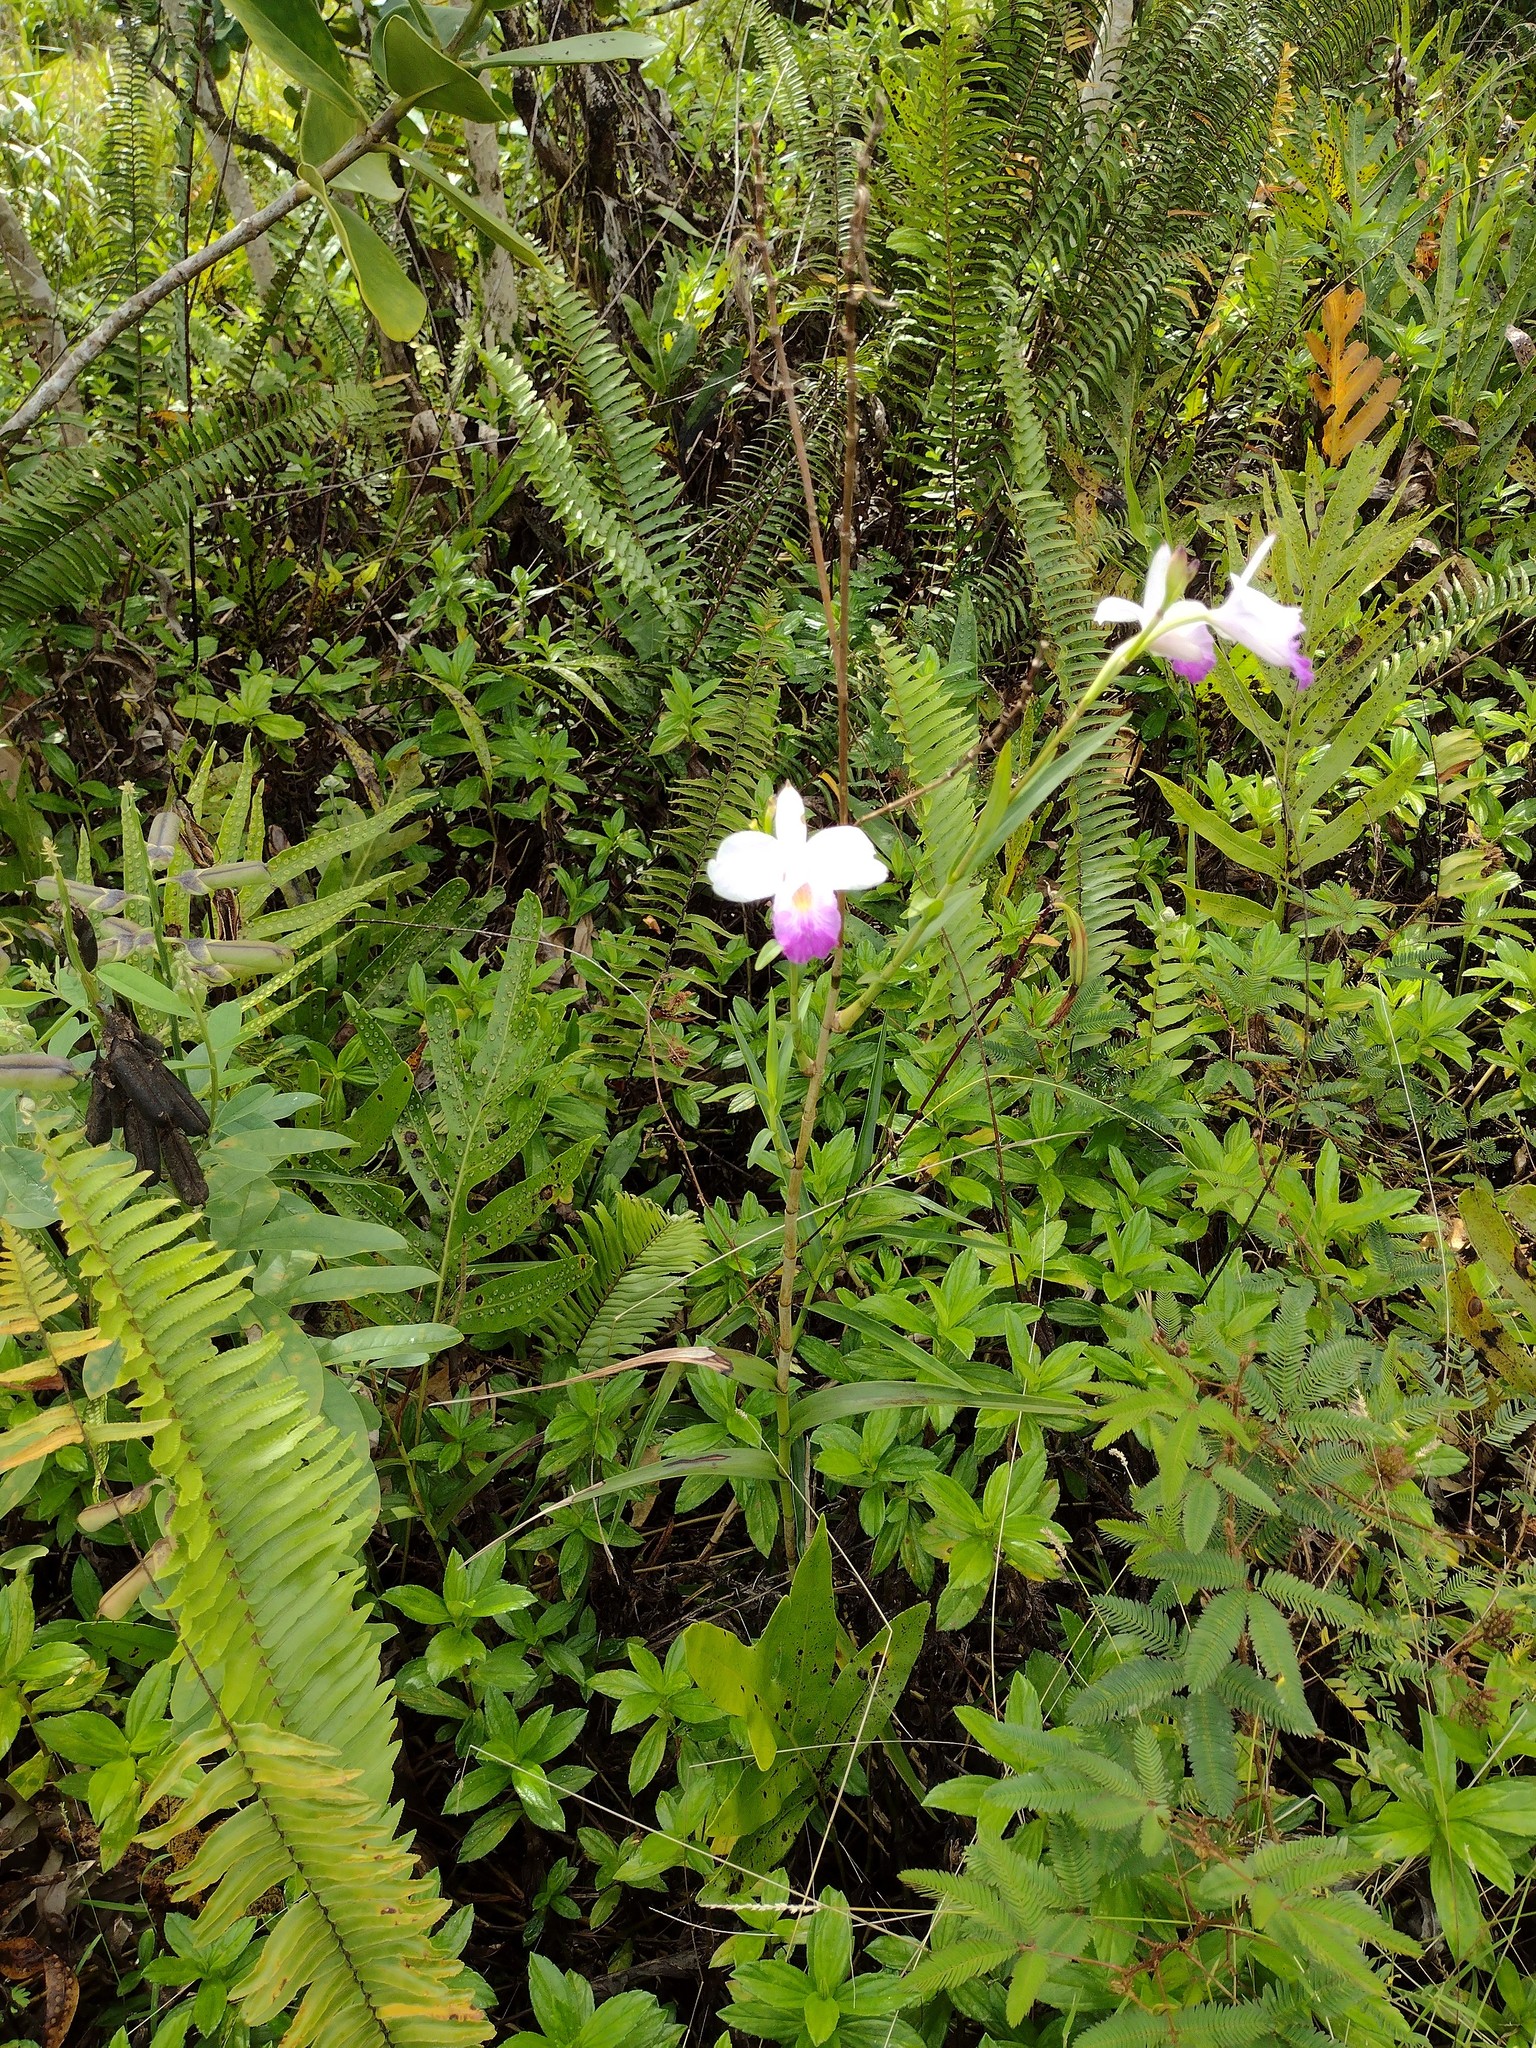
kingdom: Plantae
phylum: Tracheophyta
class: Liliopsida
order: Asparagales
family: Orchidaceae
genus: Arundina
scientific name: Arundina graminifolia
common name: Bamboo orchid
